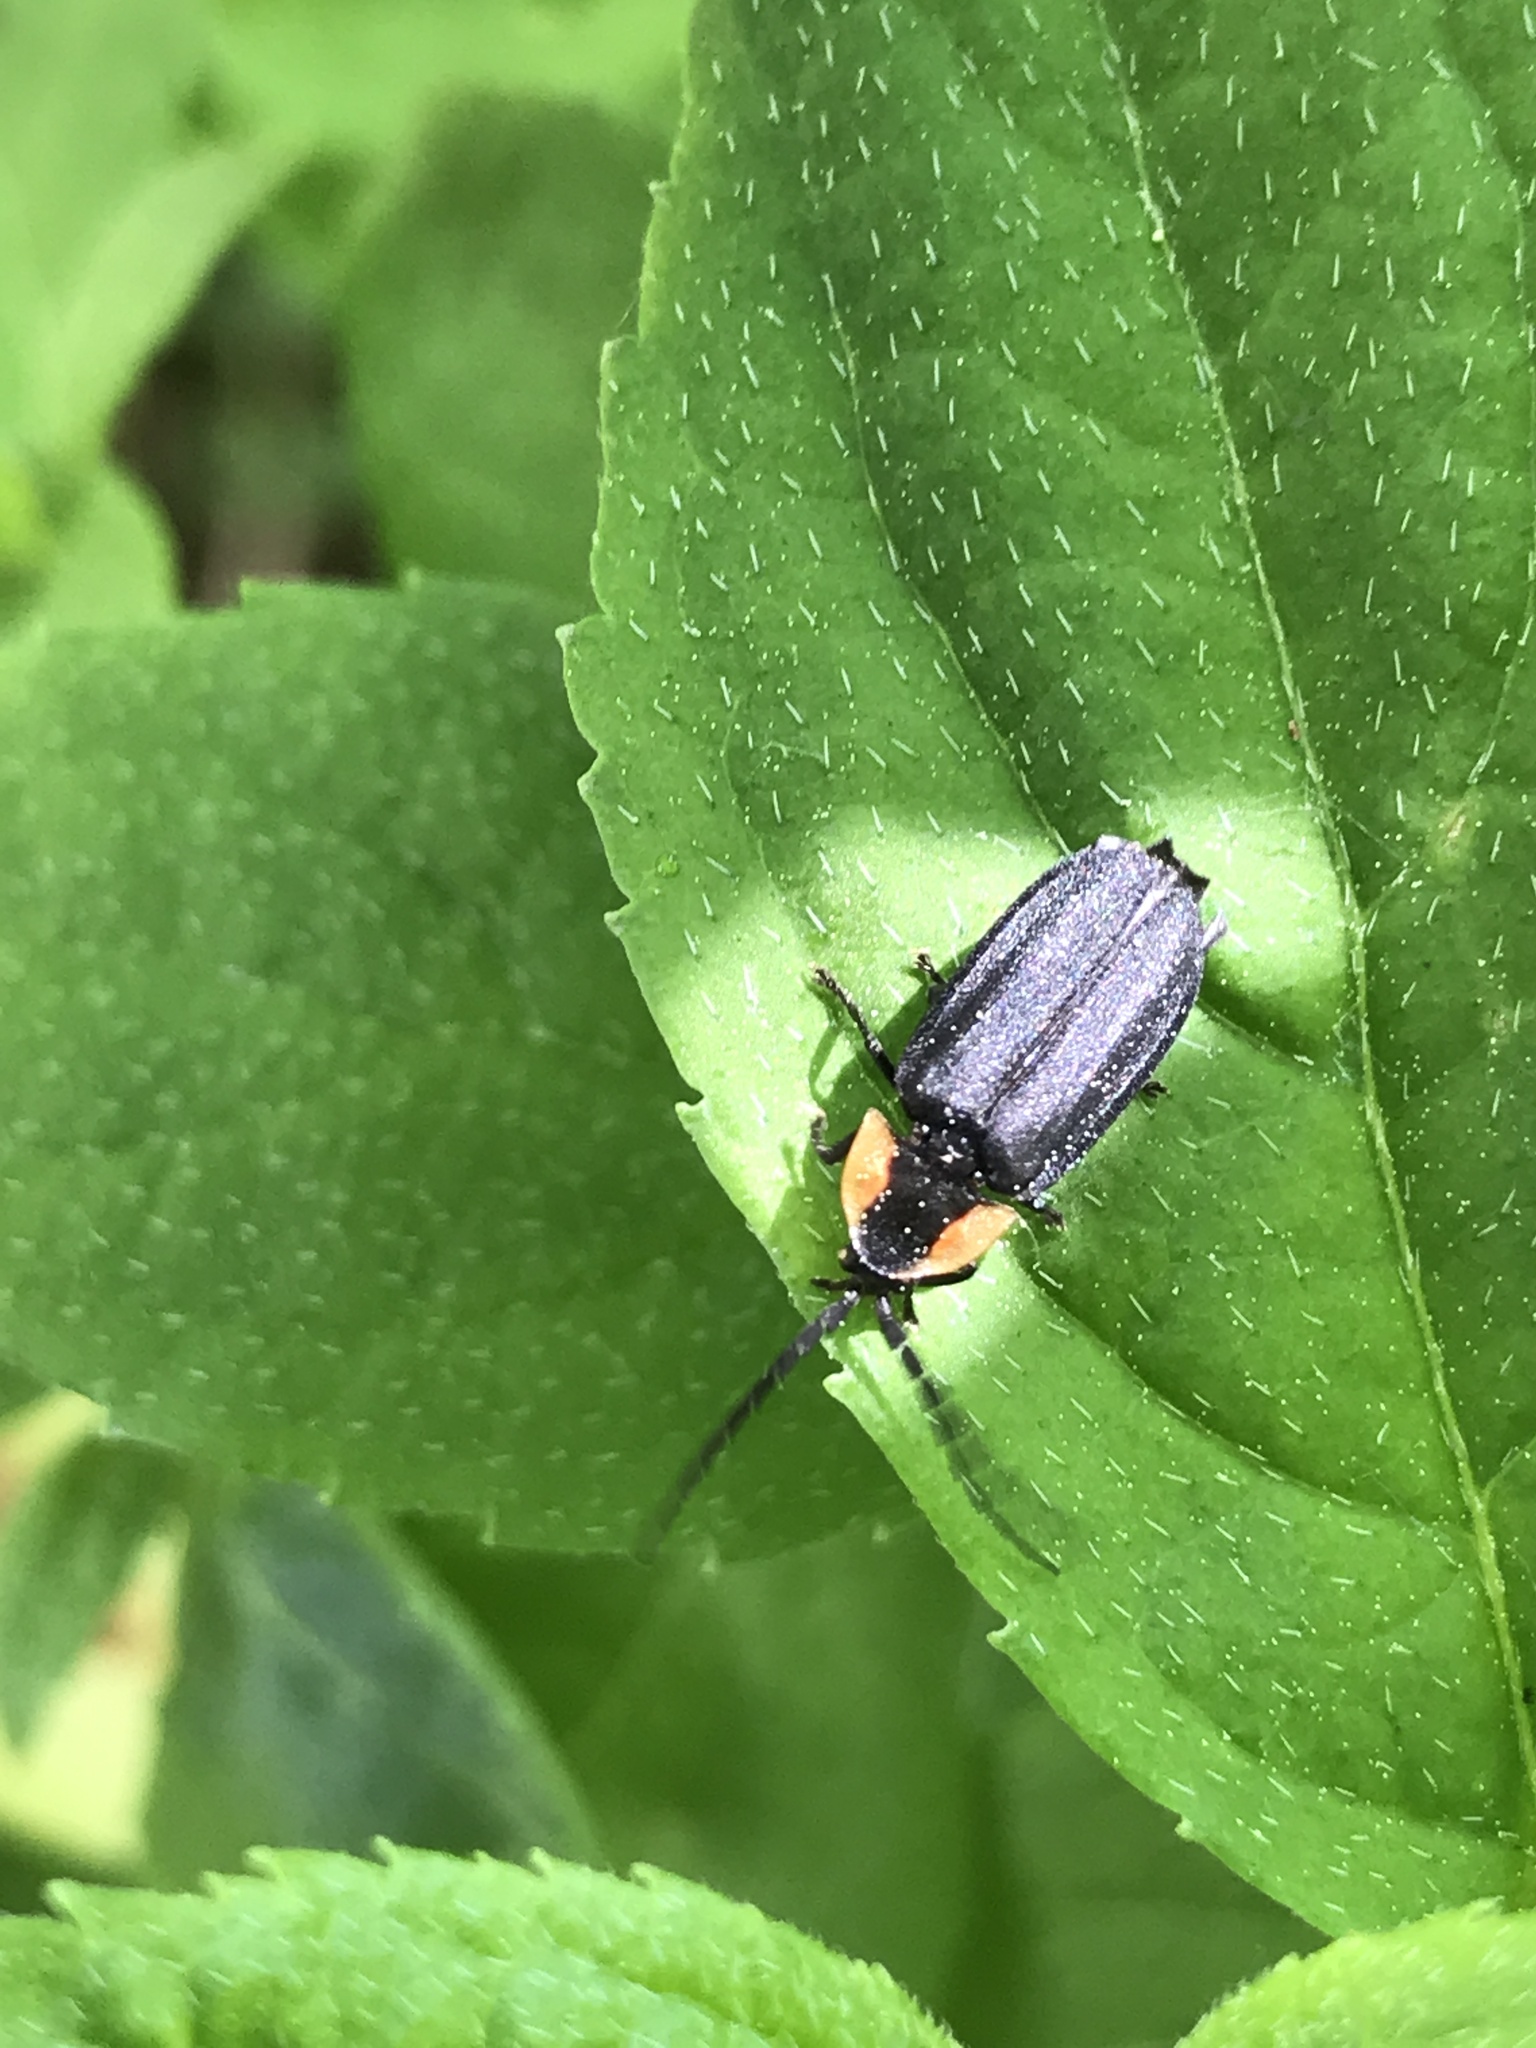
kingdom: Animalia
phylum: Arthropoda
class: Insecta
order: Coleoptera
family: Lampyridae
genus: Lucidota
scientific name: Lucidota atra
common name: Black firefly
